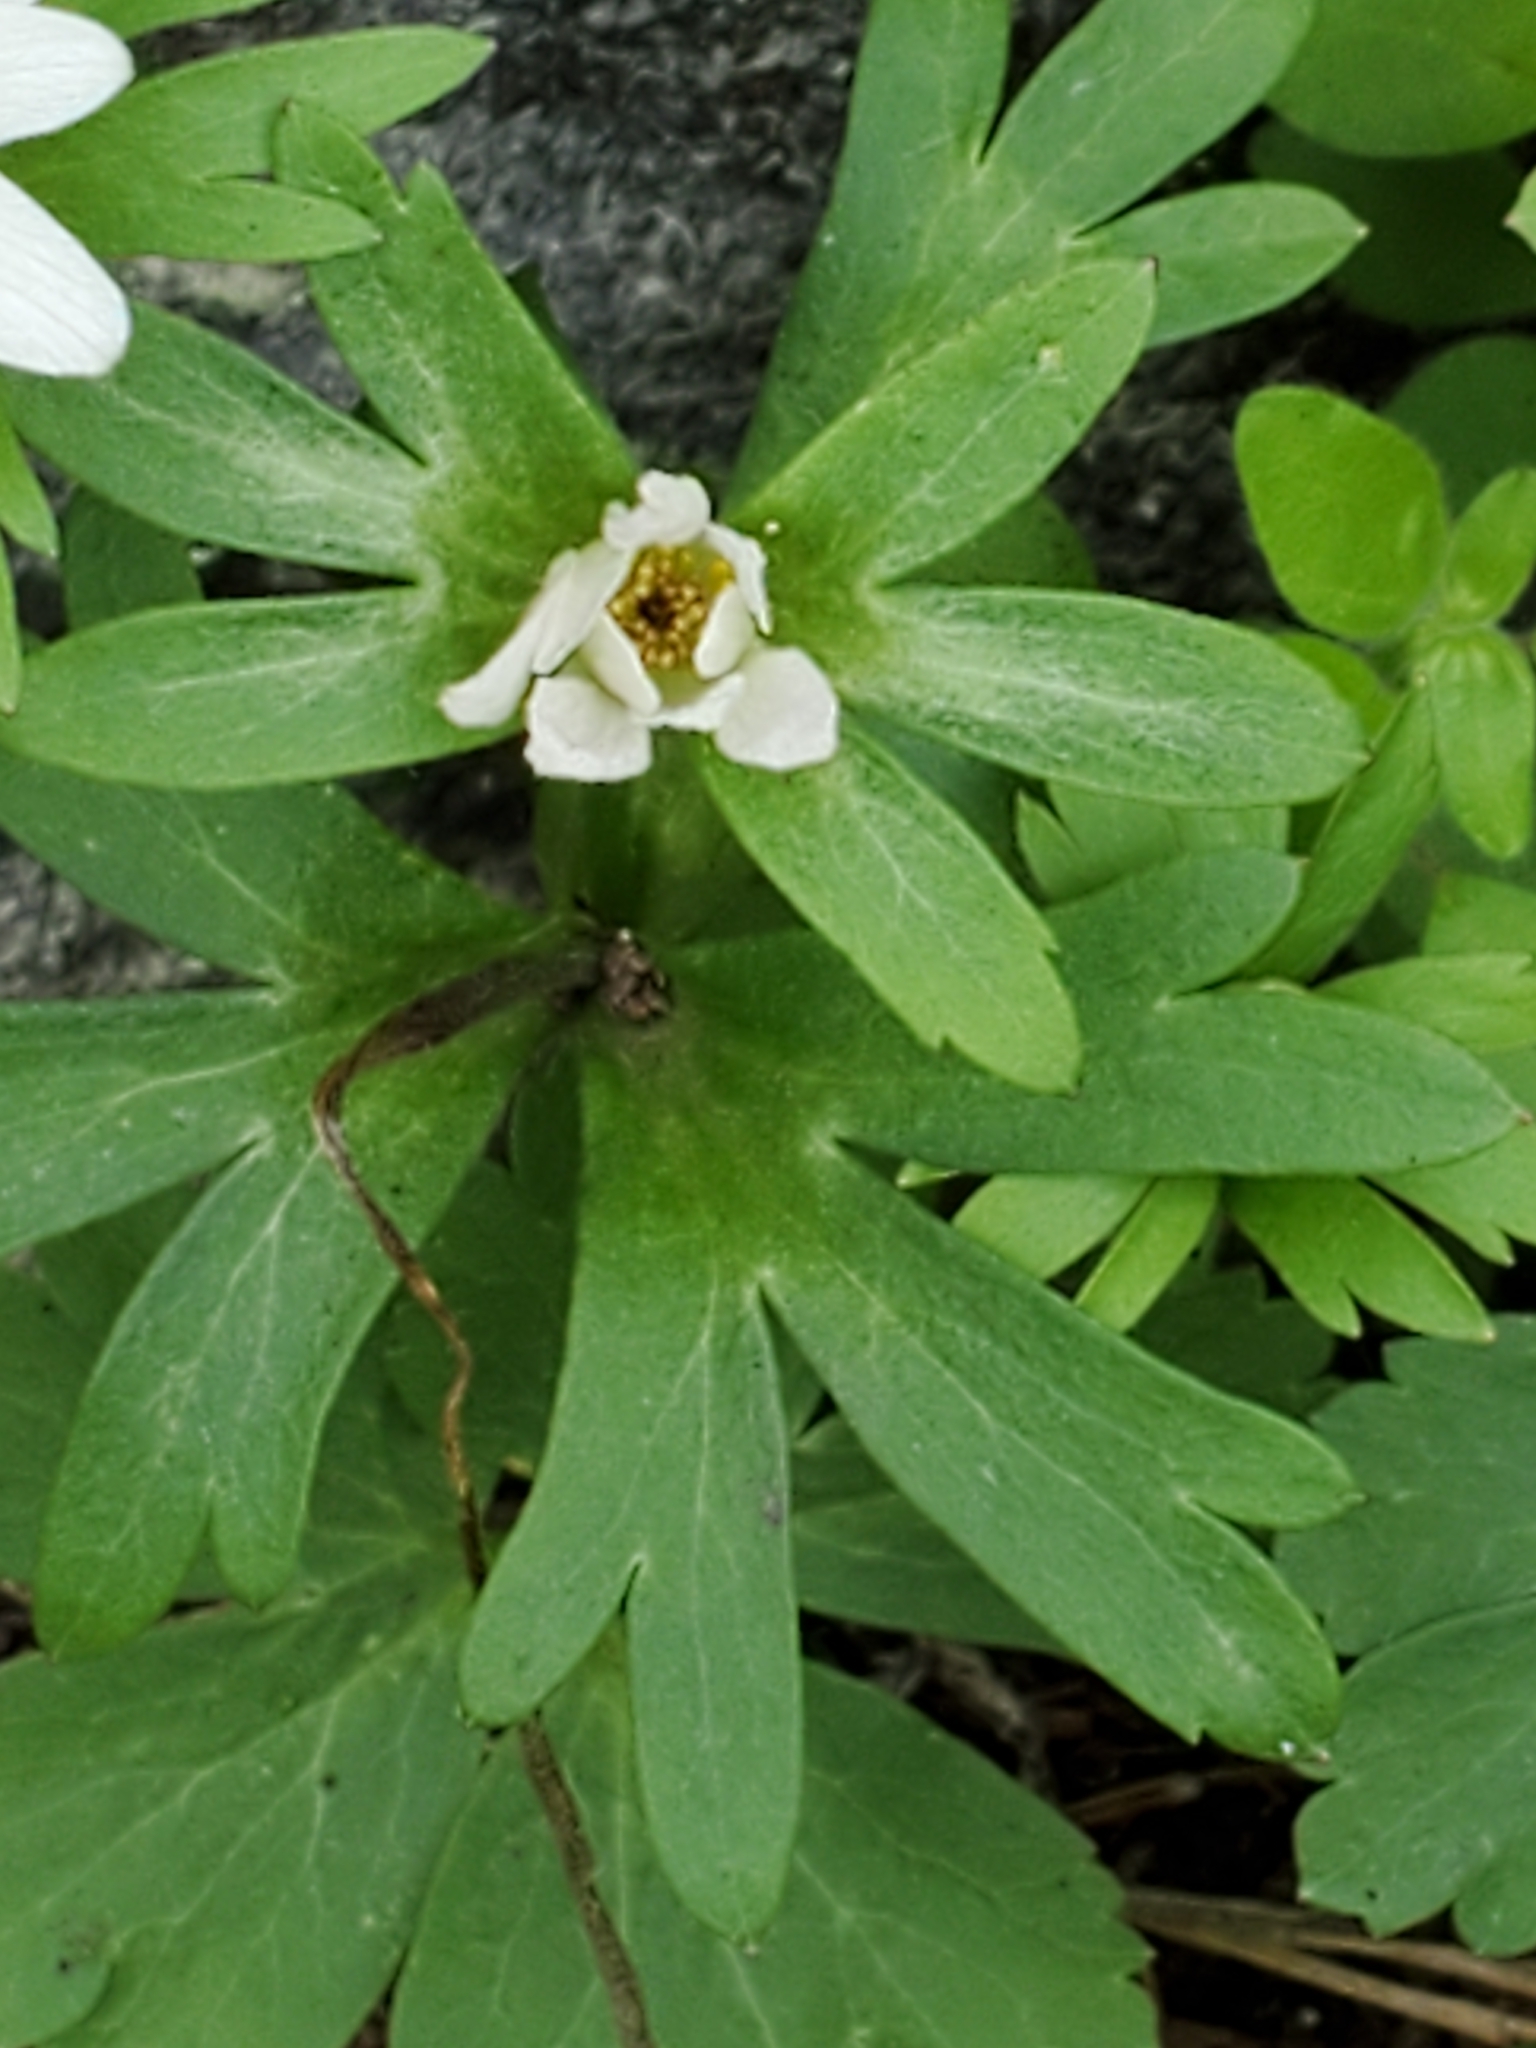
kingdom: Plantae
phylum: Tracheophyta
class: Magnoliopsida
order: Ranunculales
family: Ranunculaceae
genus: Anemone
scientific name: Anemone edwardsiana
